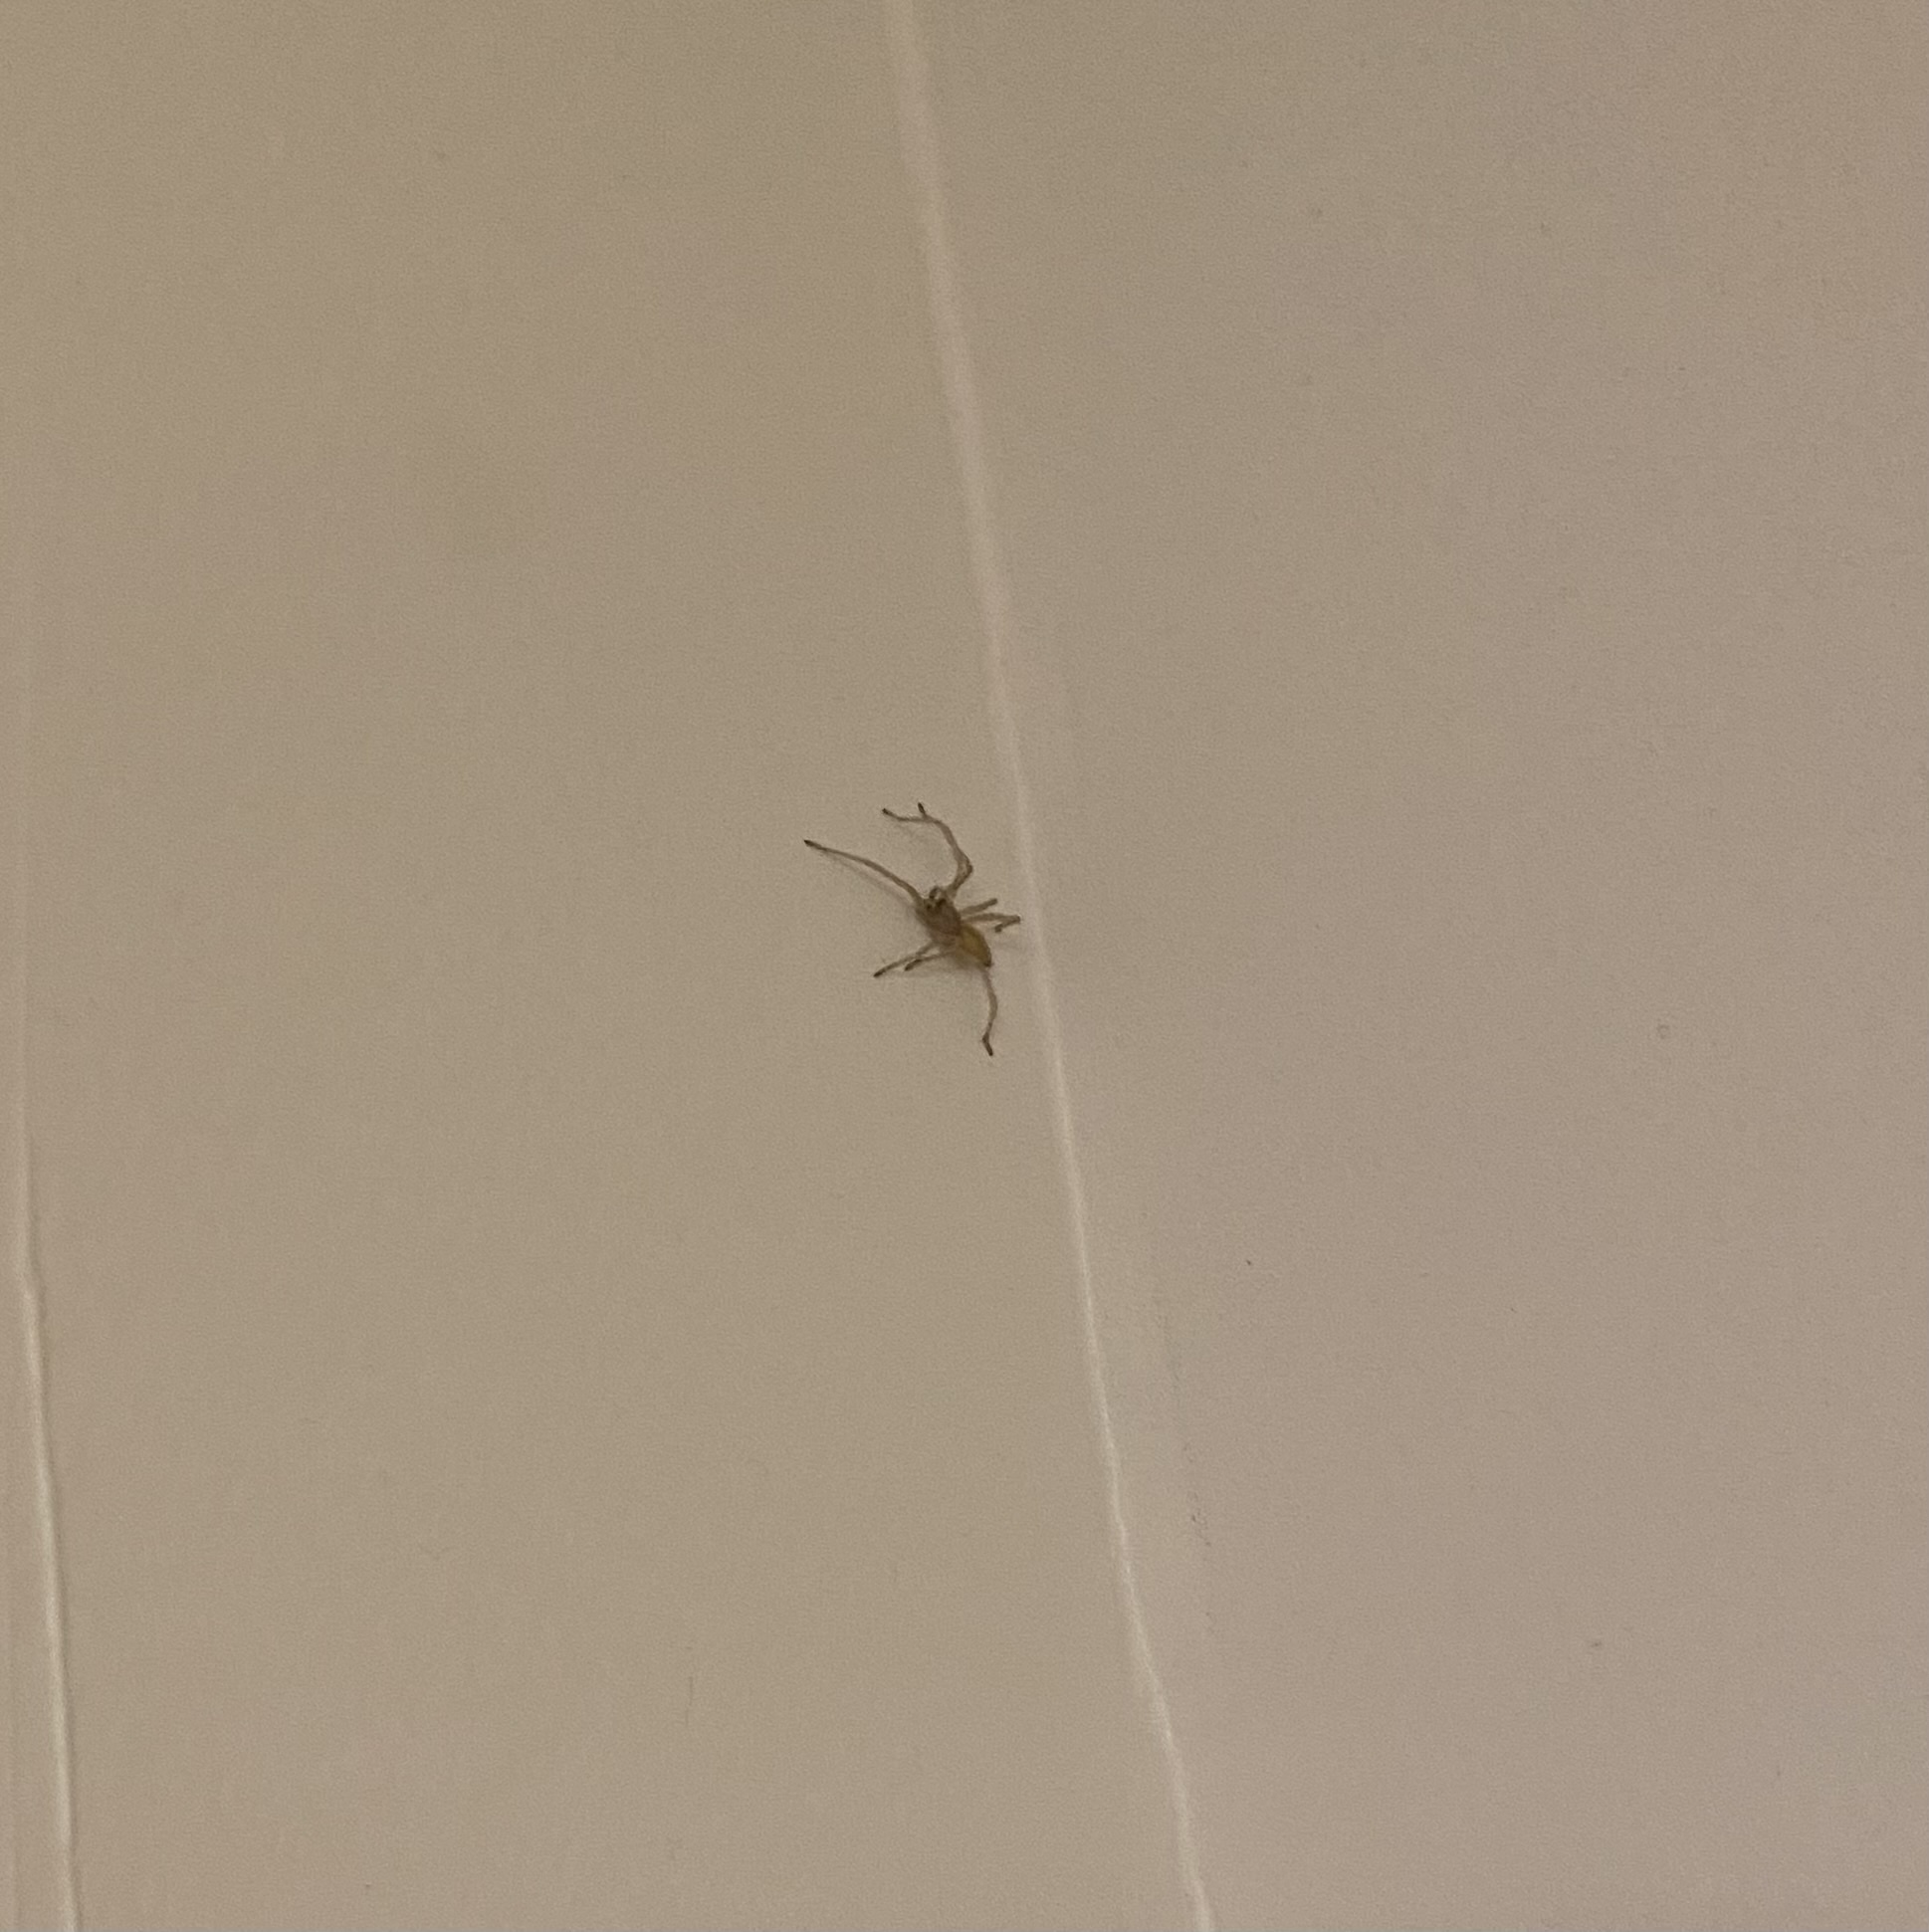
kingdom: Animalia
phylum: Arthropoda
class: Arachnida
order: Araneae
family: Cheiracanthiidae
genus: Cheiracanthium
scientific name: Cheiracanthium
